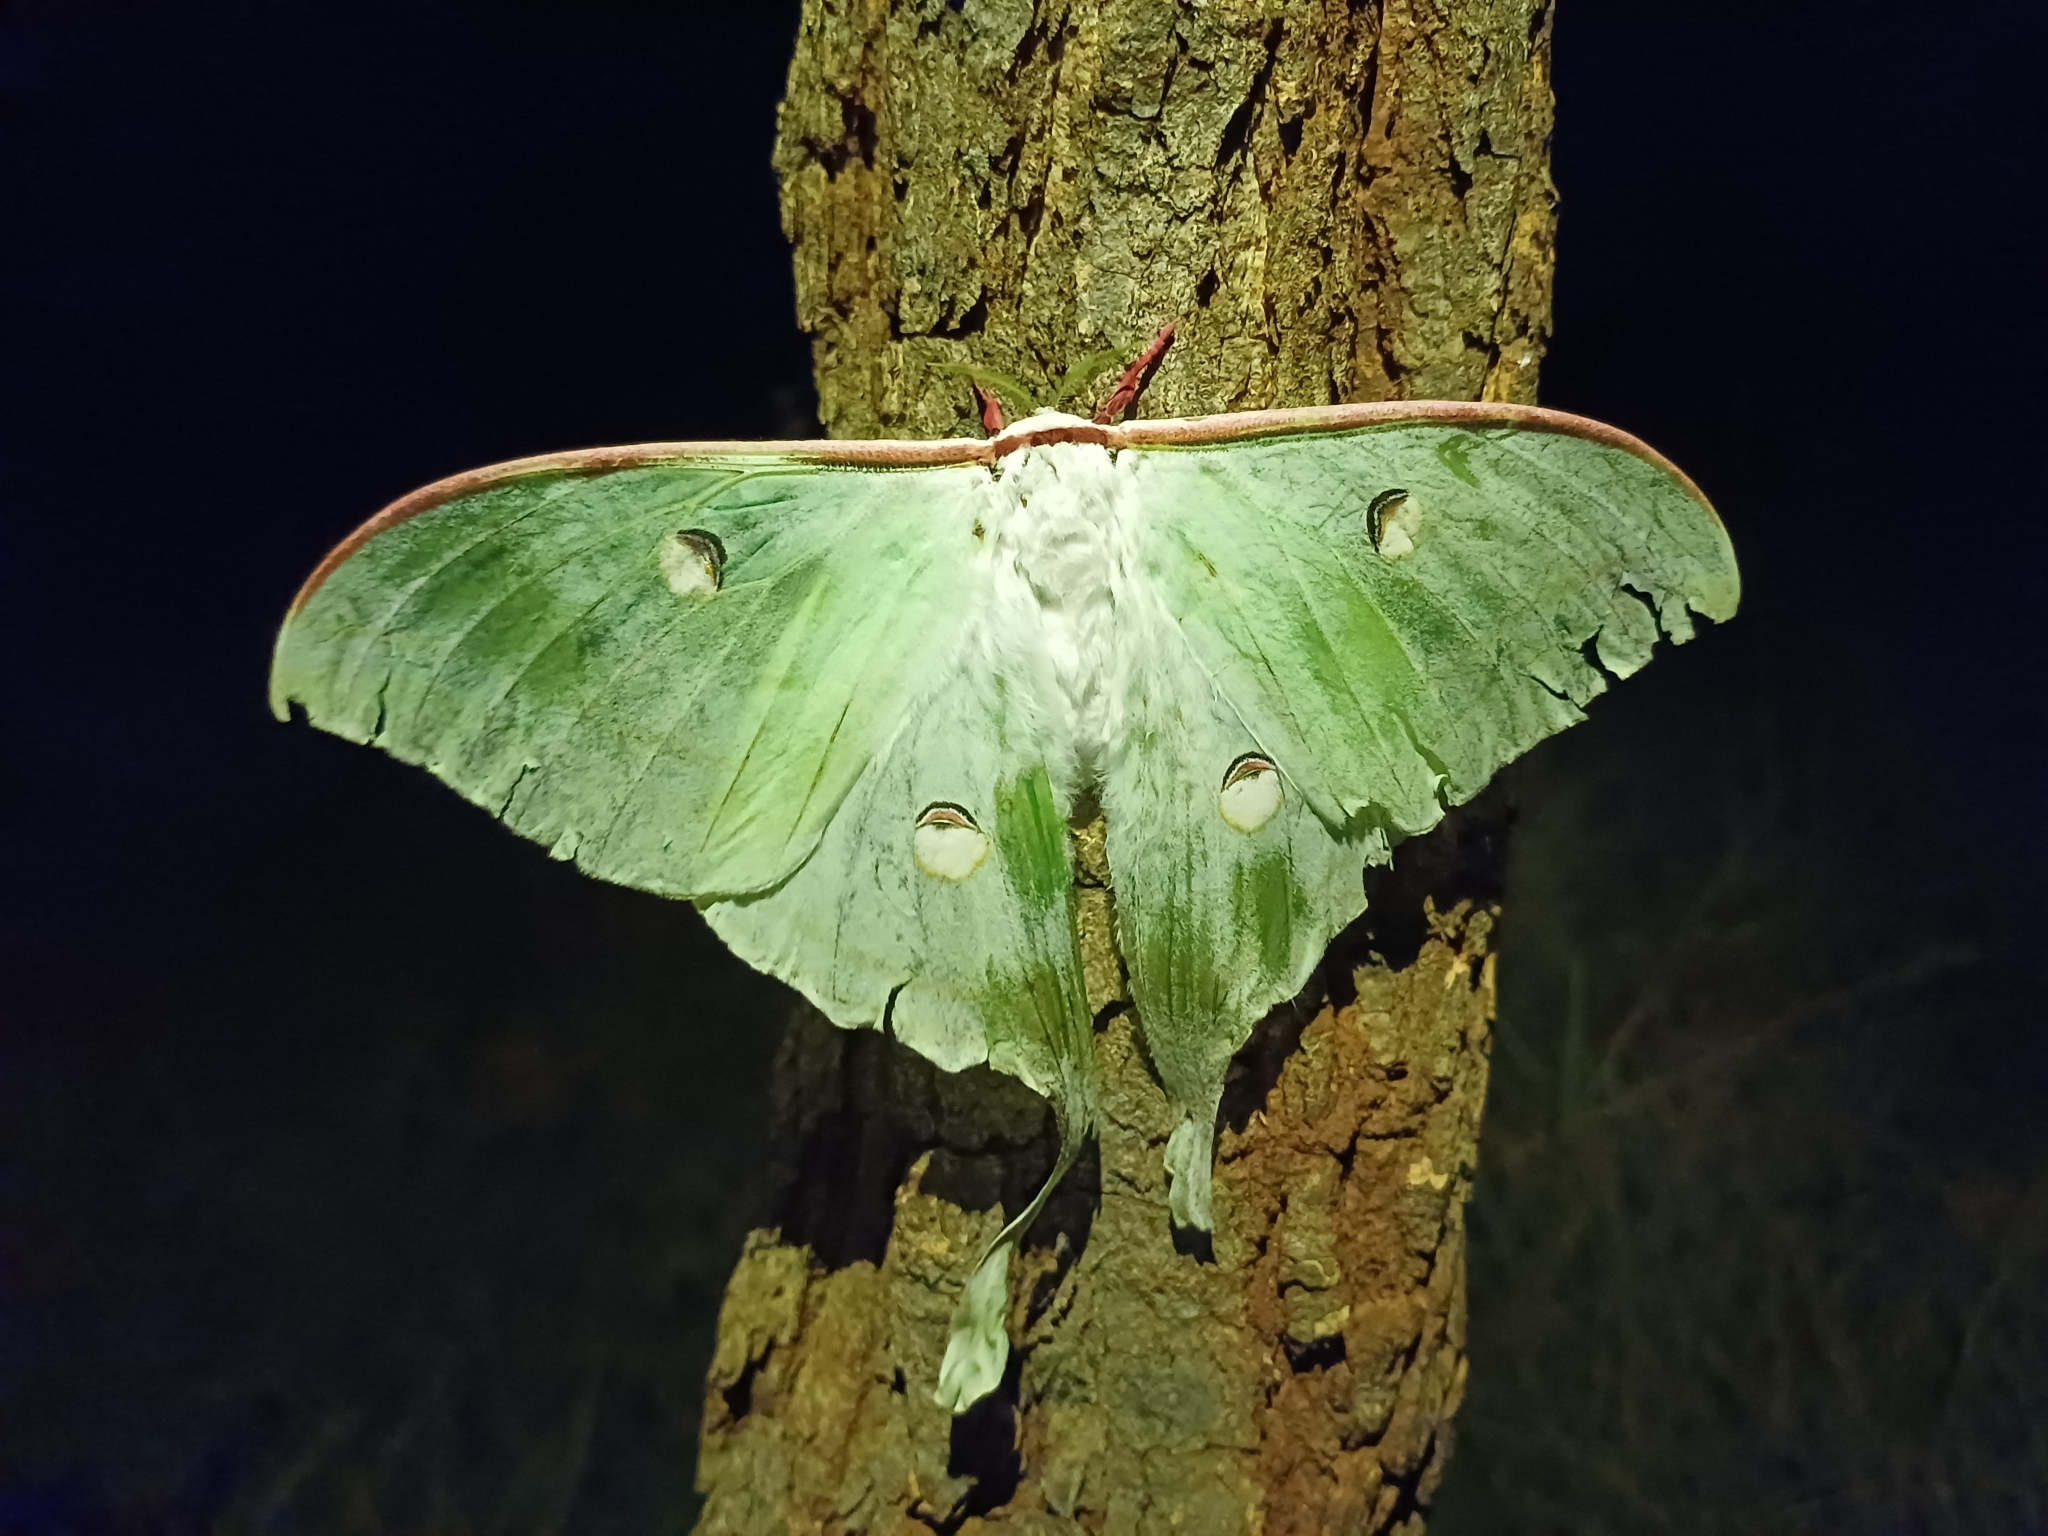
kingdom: Animalia
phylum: Arthropoda
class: Insecta
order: Lepidoptera
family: Saturniidae
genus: Actias
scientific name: Actias selene
